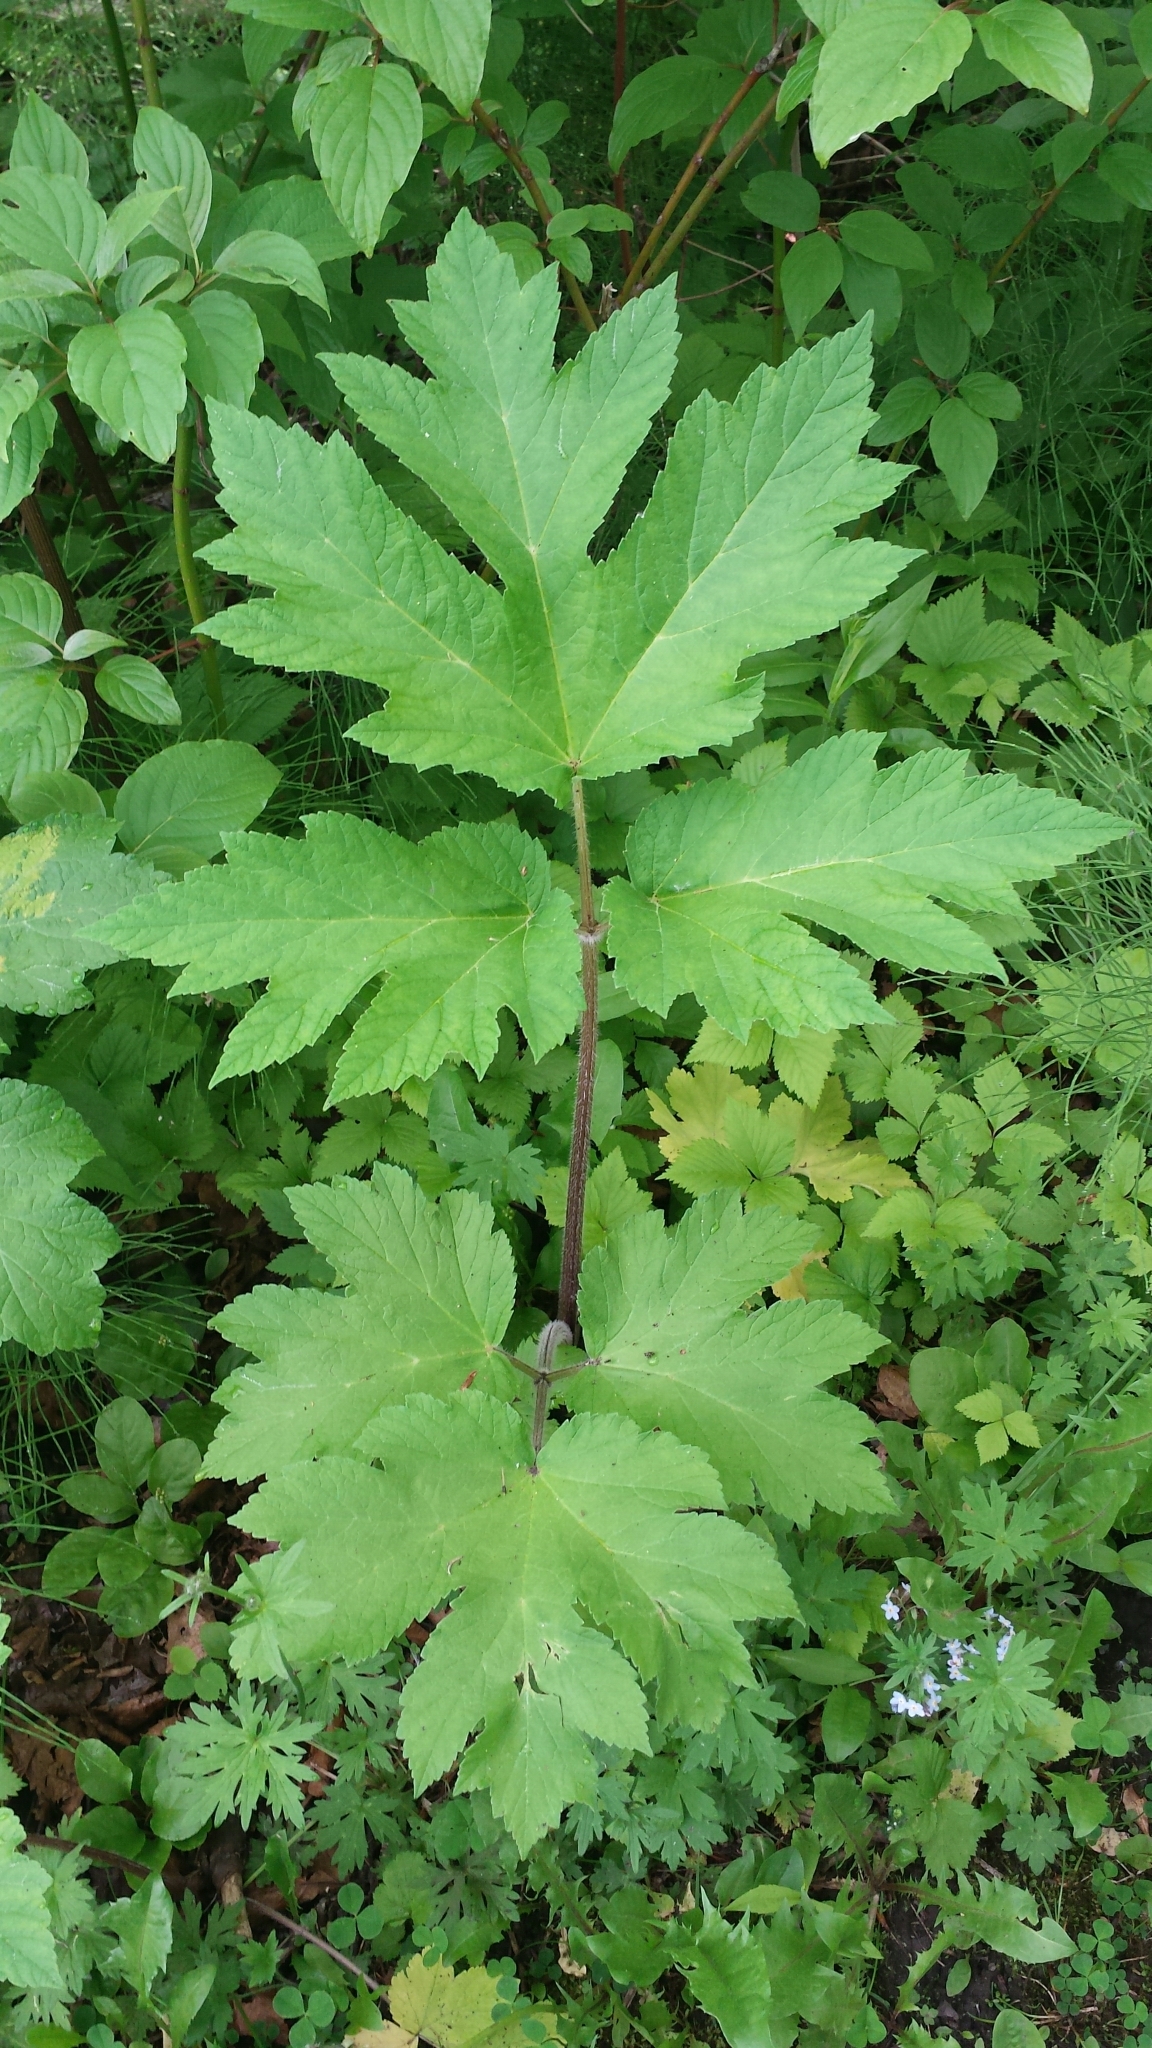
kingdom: Plantae
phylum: Tracheophyta
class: Magnoliopsida
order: Apiales
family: Apiaceae
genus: Heracleum
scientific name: Heracleum maximum
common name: American cow parsnip
